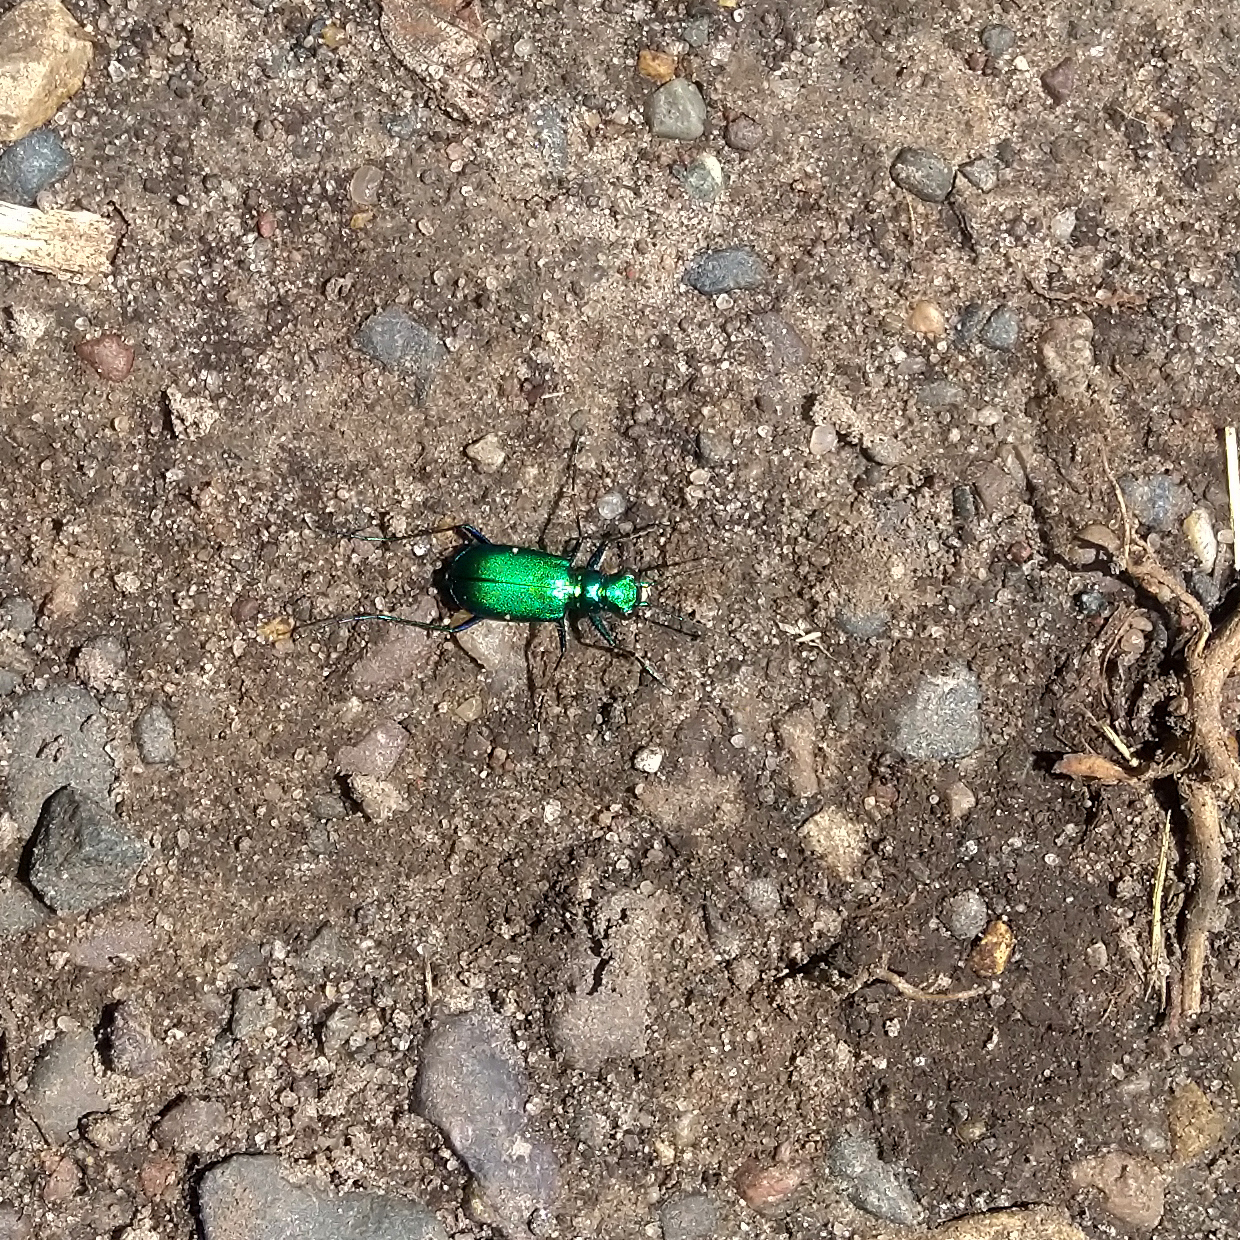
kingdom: Animalia
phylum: Arthropoda
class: Insecta
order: Coleoptera
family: Carabidae
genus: Cicindela
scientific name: Cicindela sexguttata
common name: Six-spotted tiger beetle
